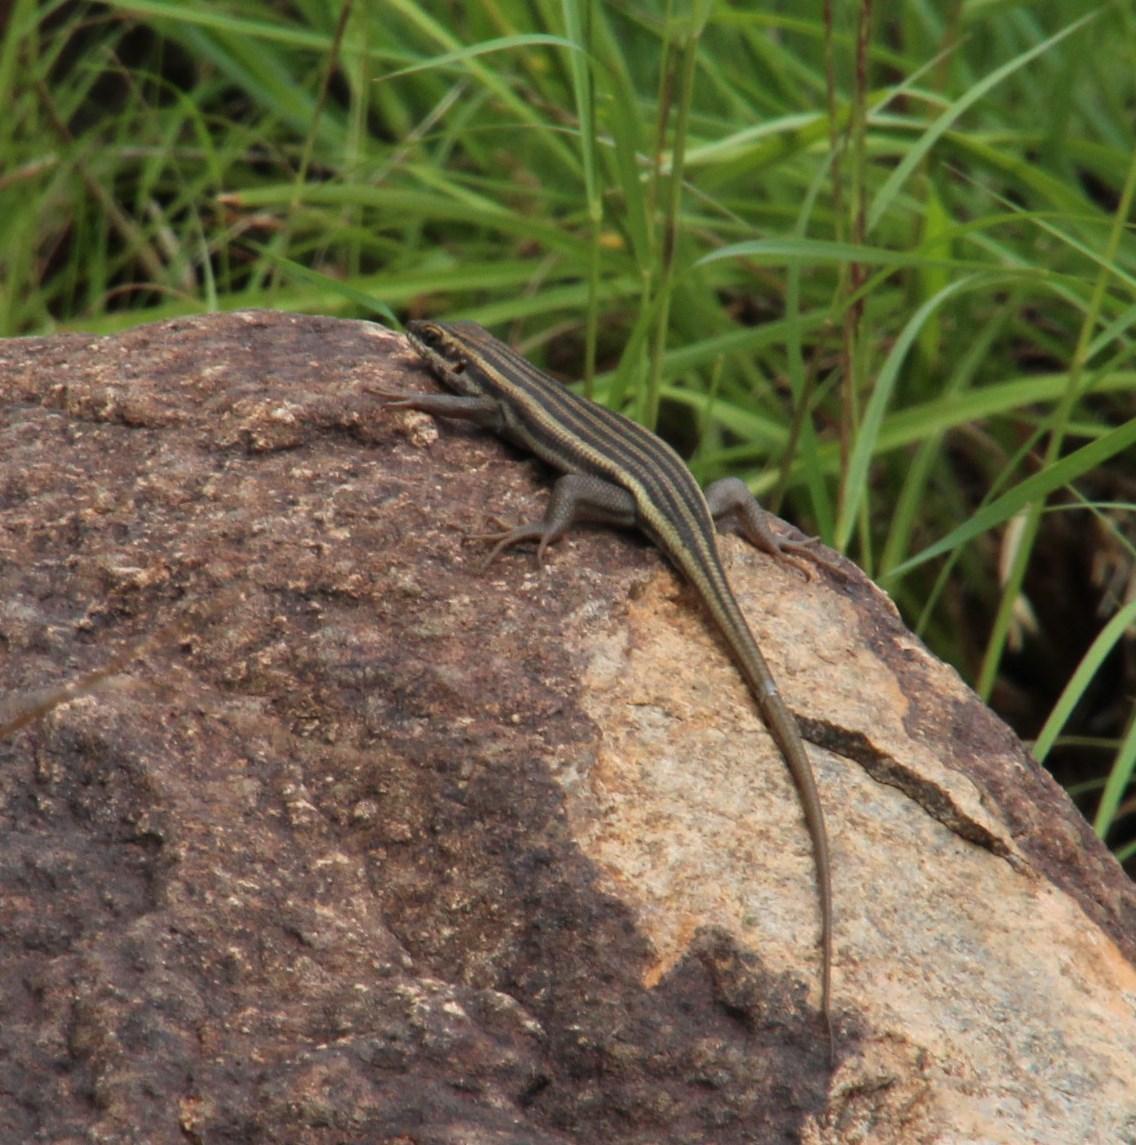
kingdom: Animalia
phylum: Chordata
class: Squamata
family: Scincidae
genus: Trachylepis
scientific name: Trachylepis sulcata
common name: Western rock skink
